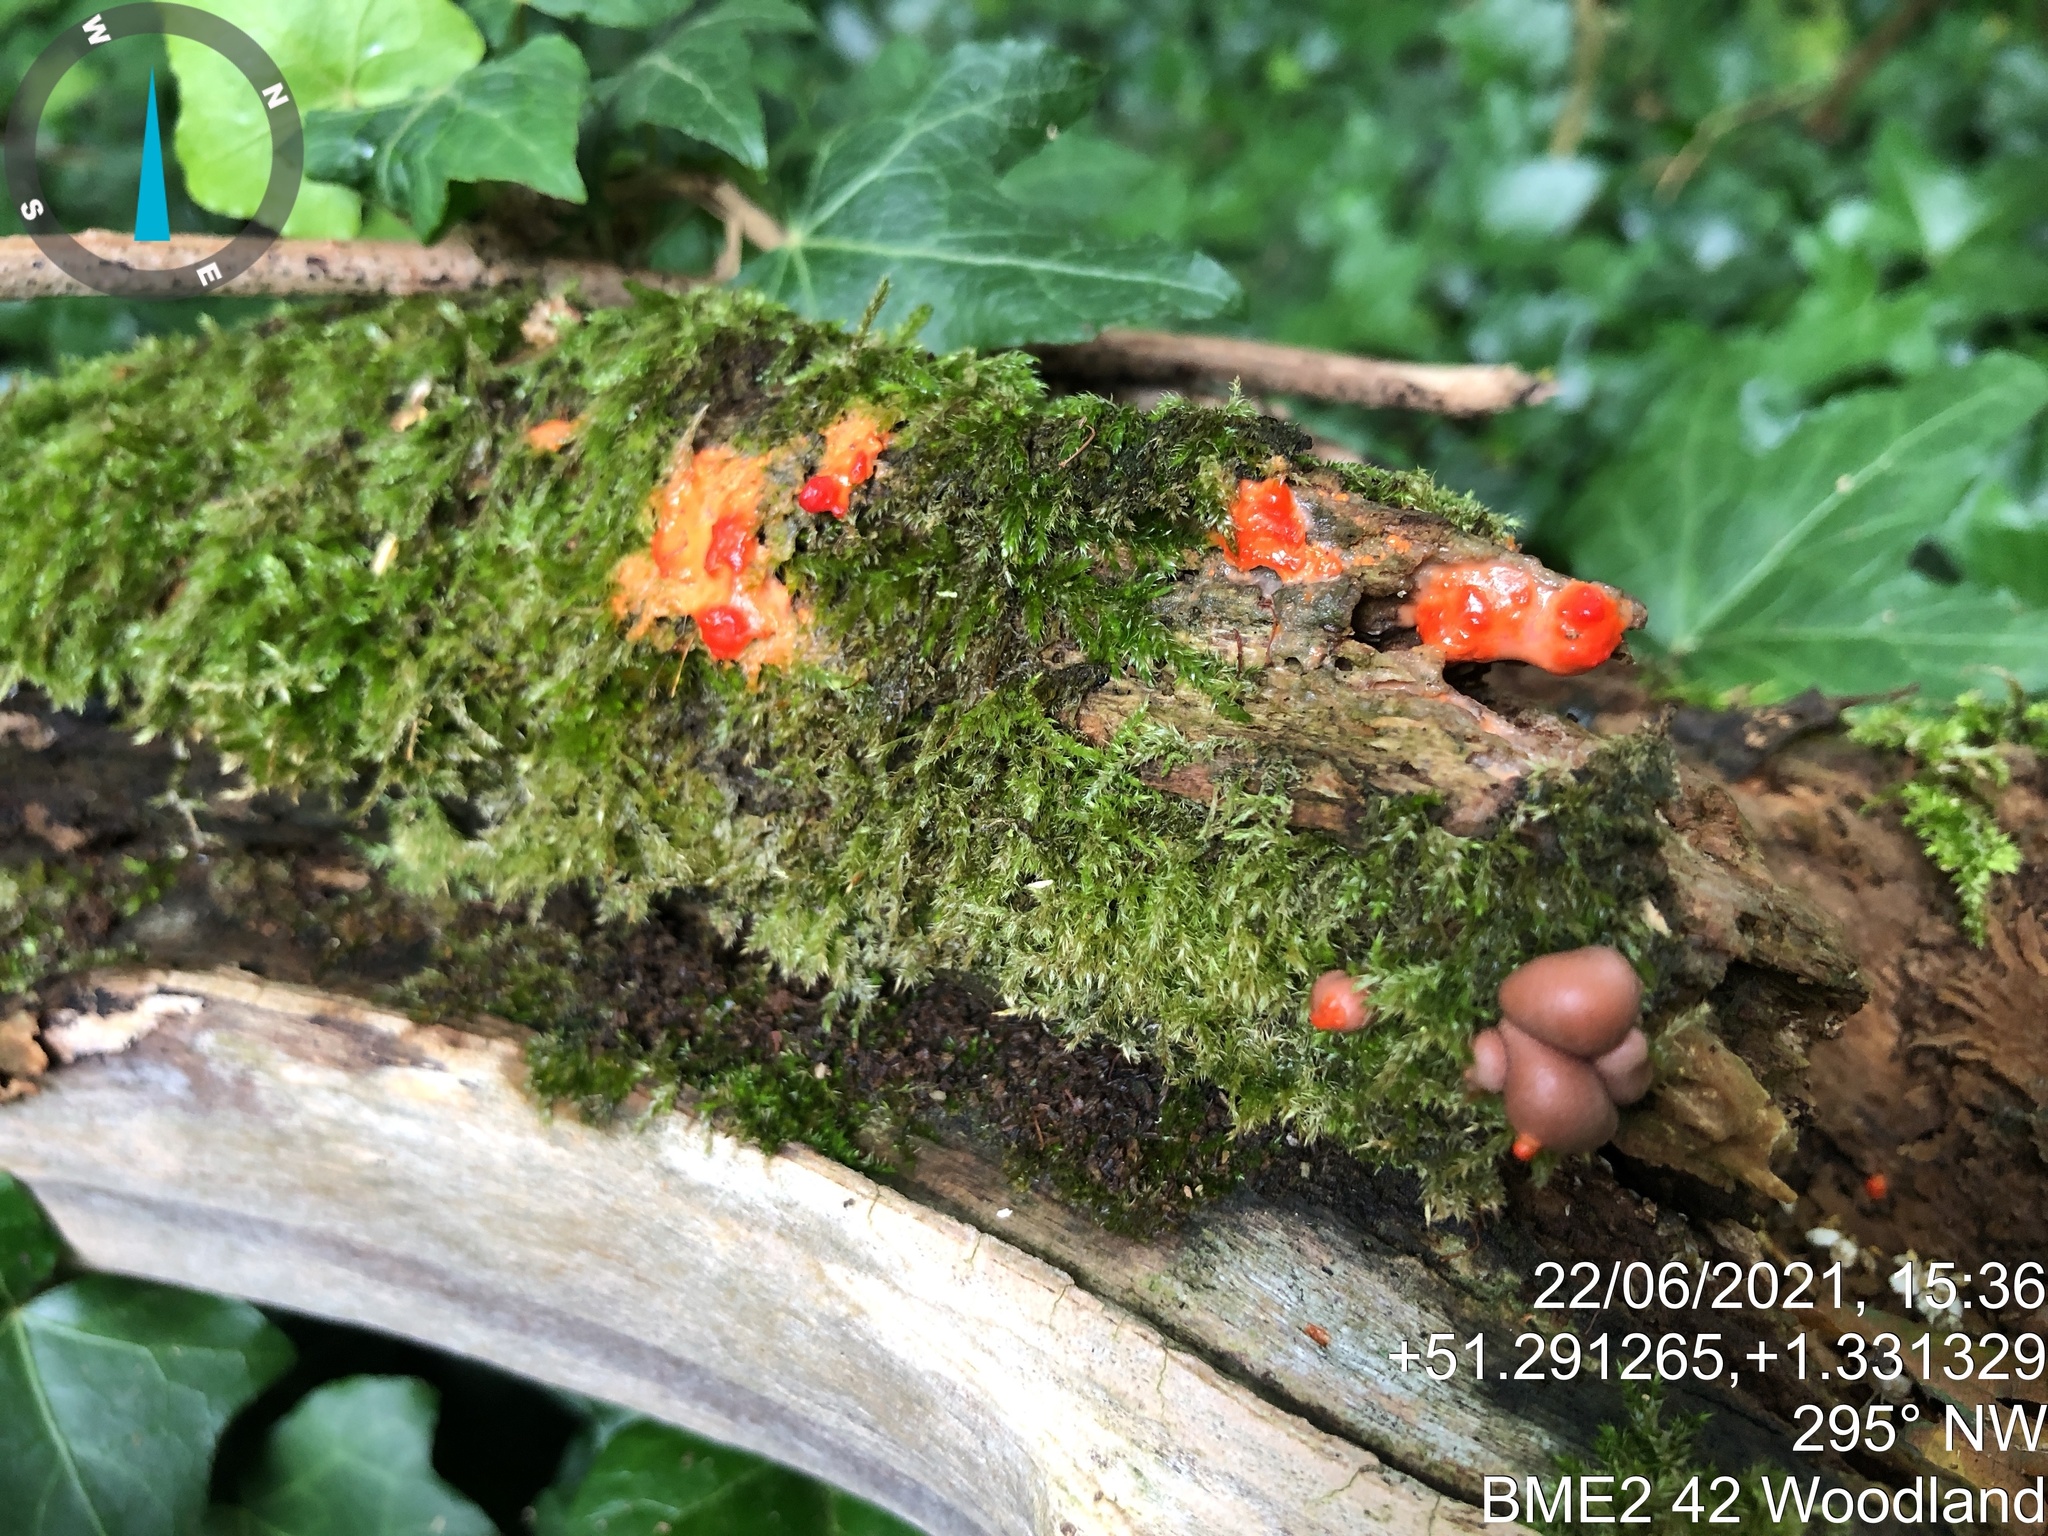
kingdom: Protozoa
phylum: Mycetozoa
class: Myxomycetes
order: Cribrariales
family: Tubiferaceae
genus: Lycogala
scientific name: Lycogala epidendrum
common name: Wolf's milk
